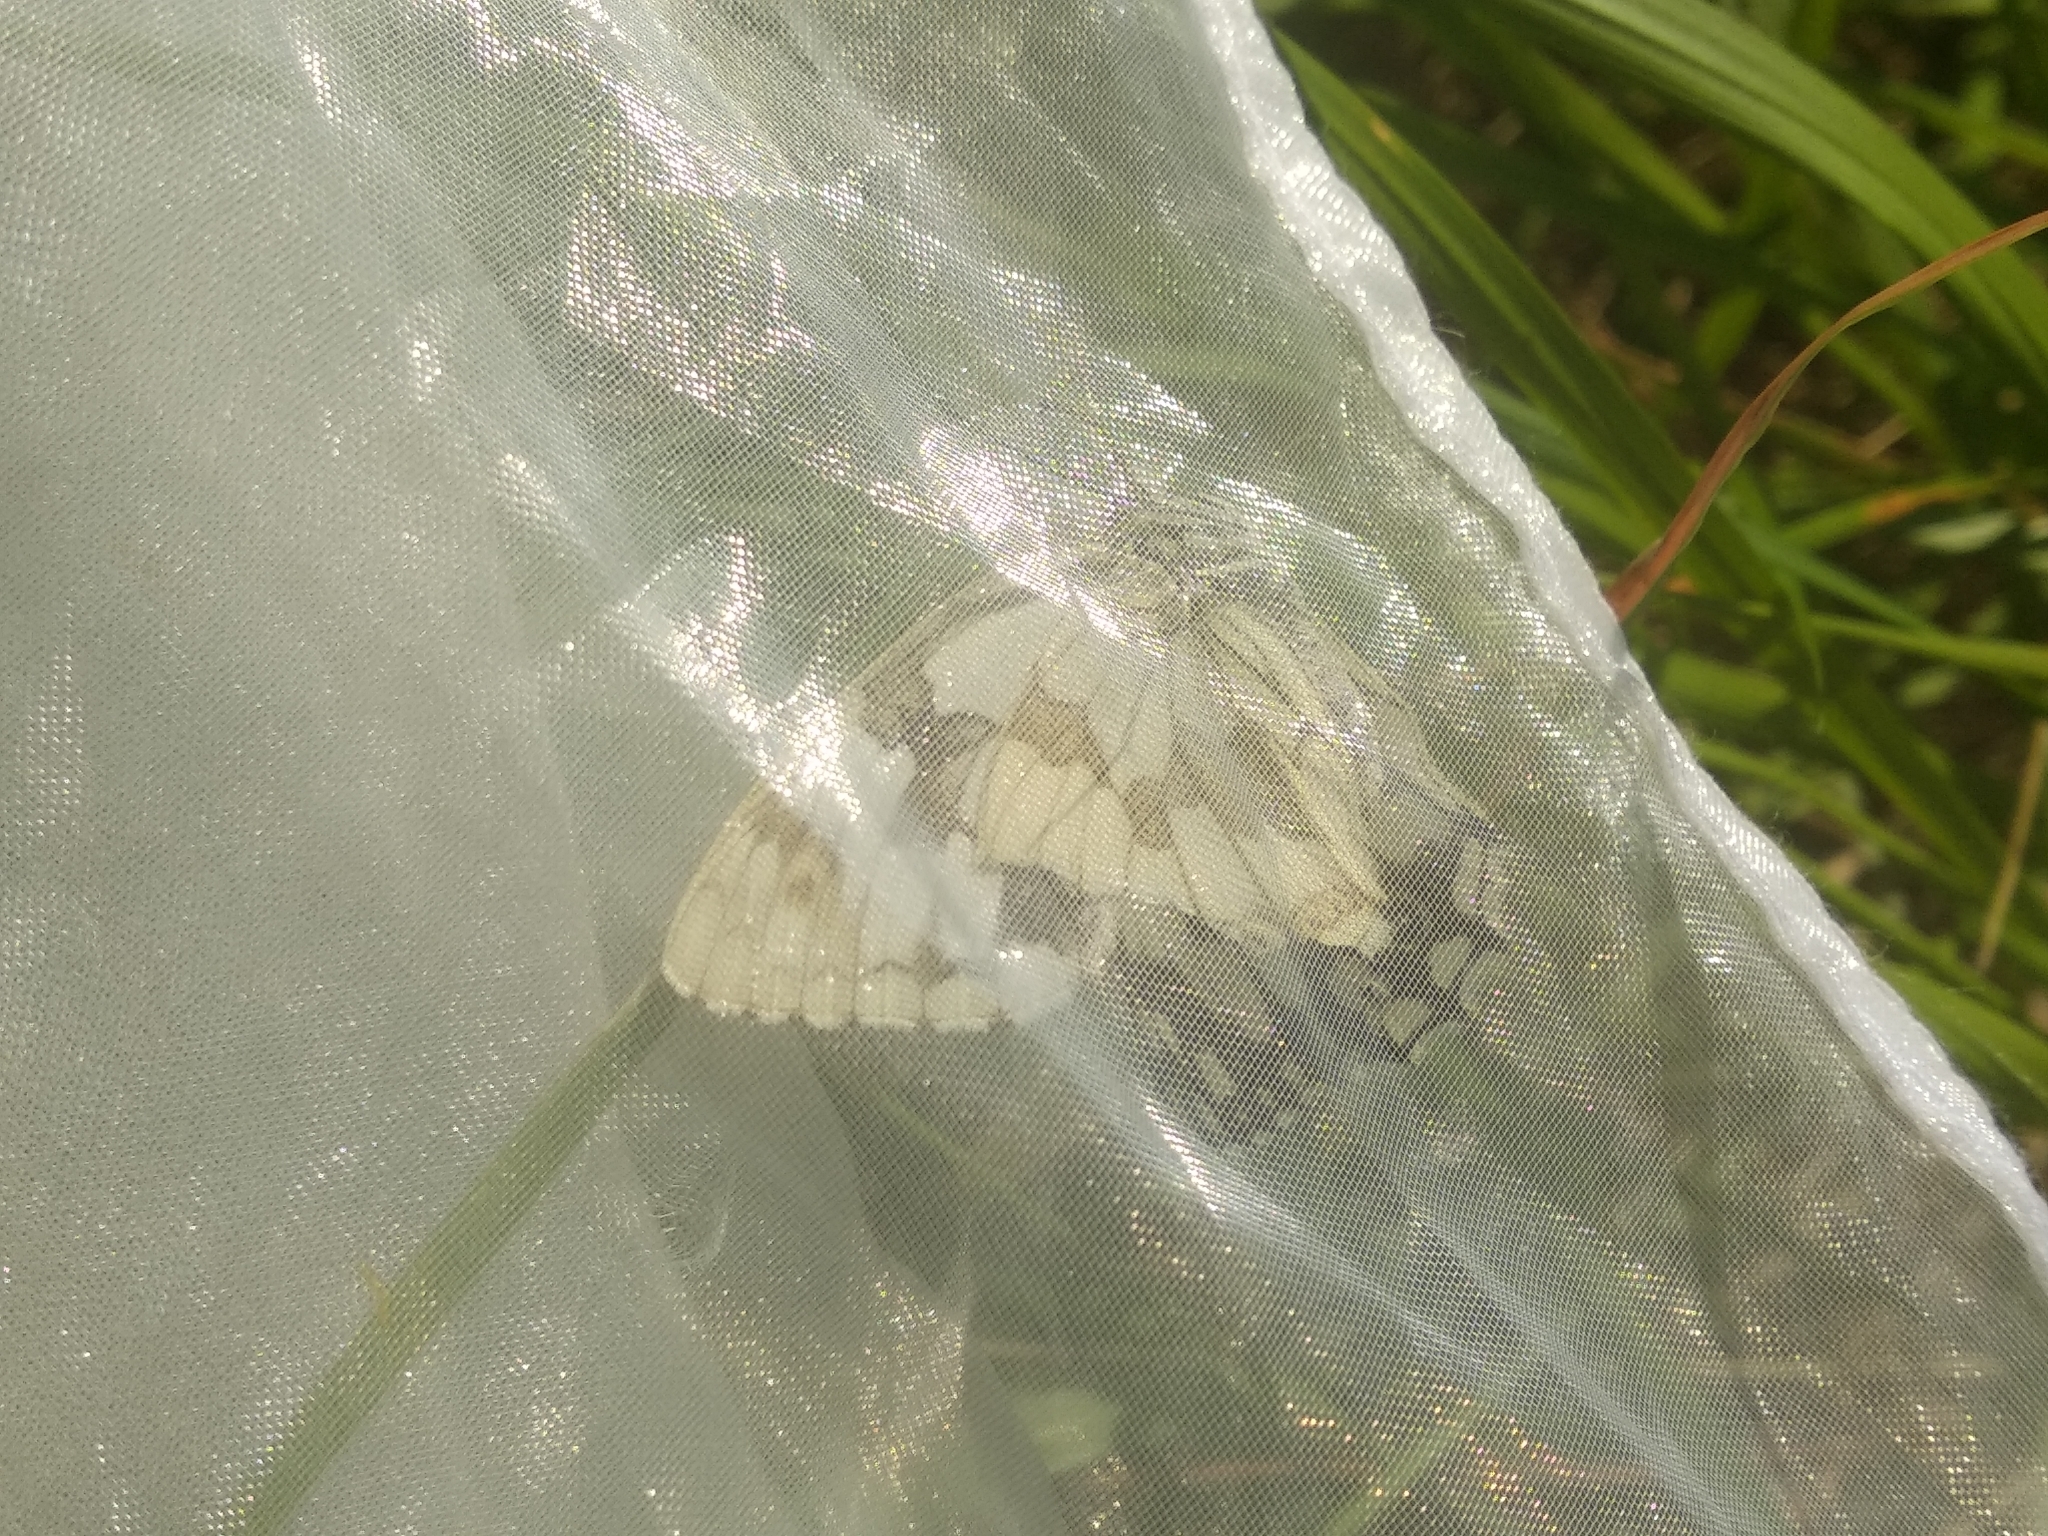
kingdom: Animalia
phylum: Arthropoda
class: Insecta
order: Lepidoptera
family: Nymphalidae
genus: Melanargia
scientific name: Melanargia lachesis
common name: Iberian marbled white
